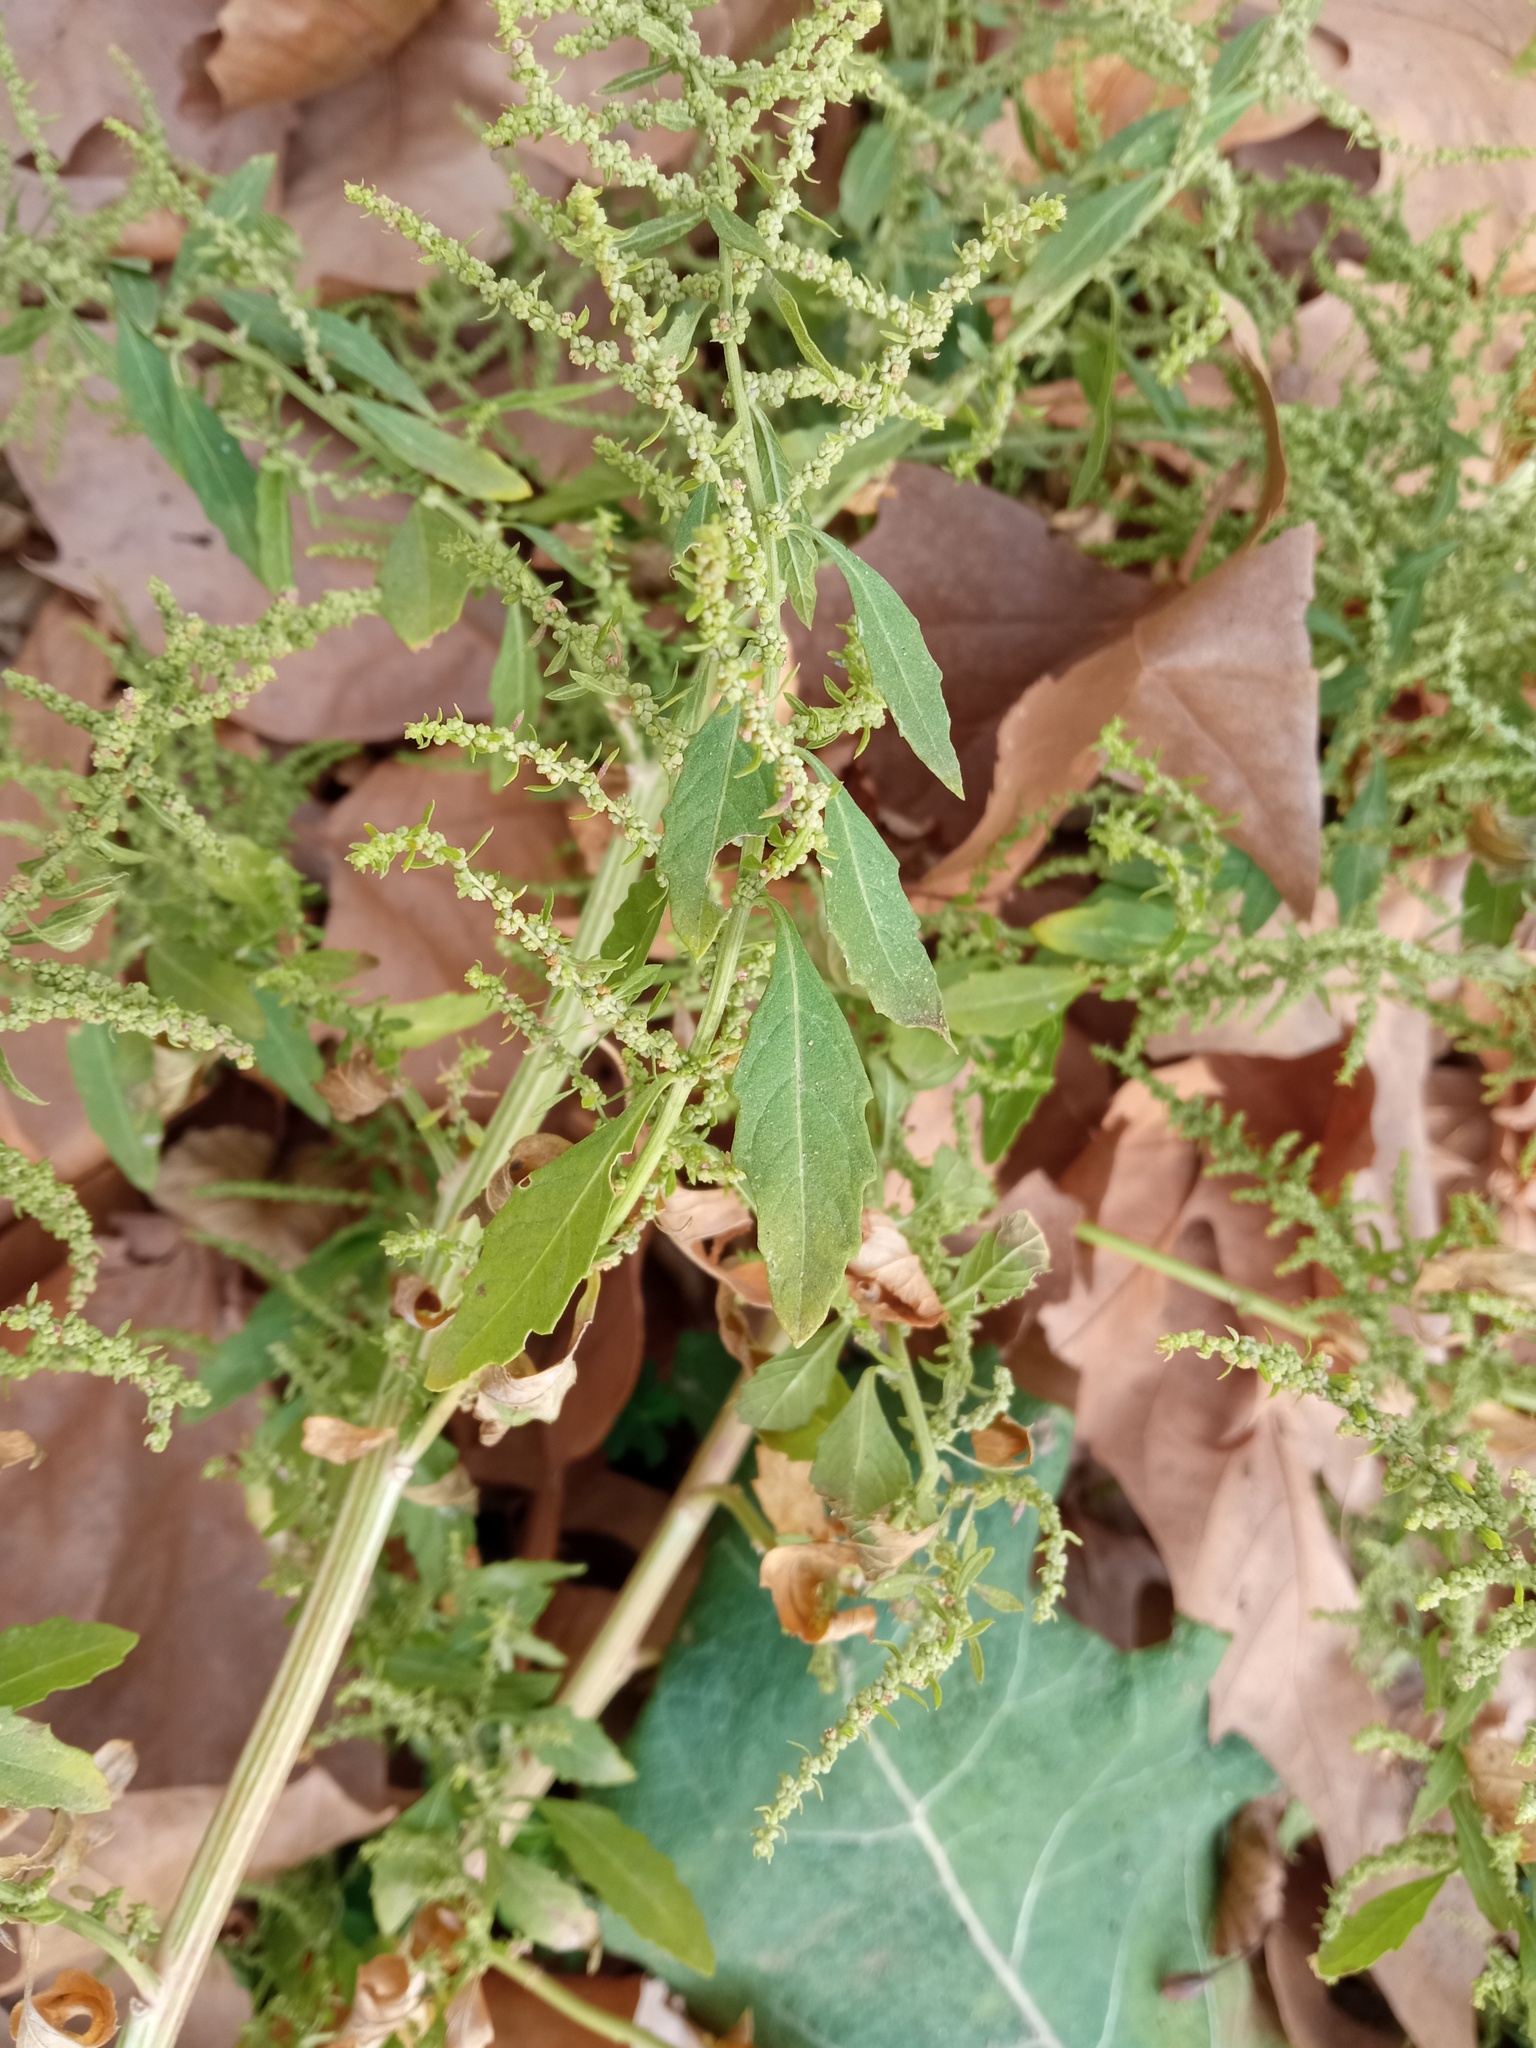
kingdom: Plantae
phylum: Tracheophyta
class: Magnoliopsida
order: Caryophyllales
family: Amaranthaceae
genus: Dysphania
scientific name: Dysphania ambrosioides
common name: Wormseed
